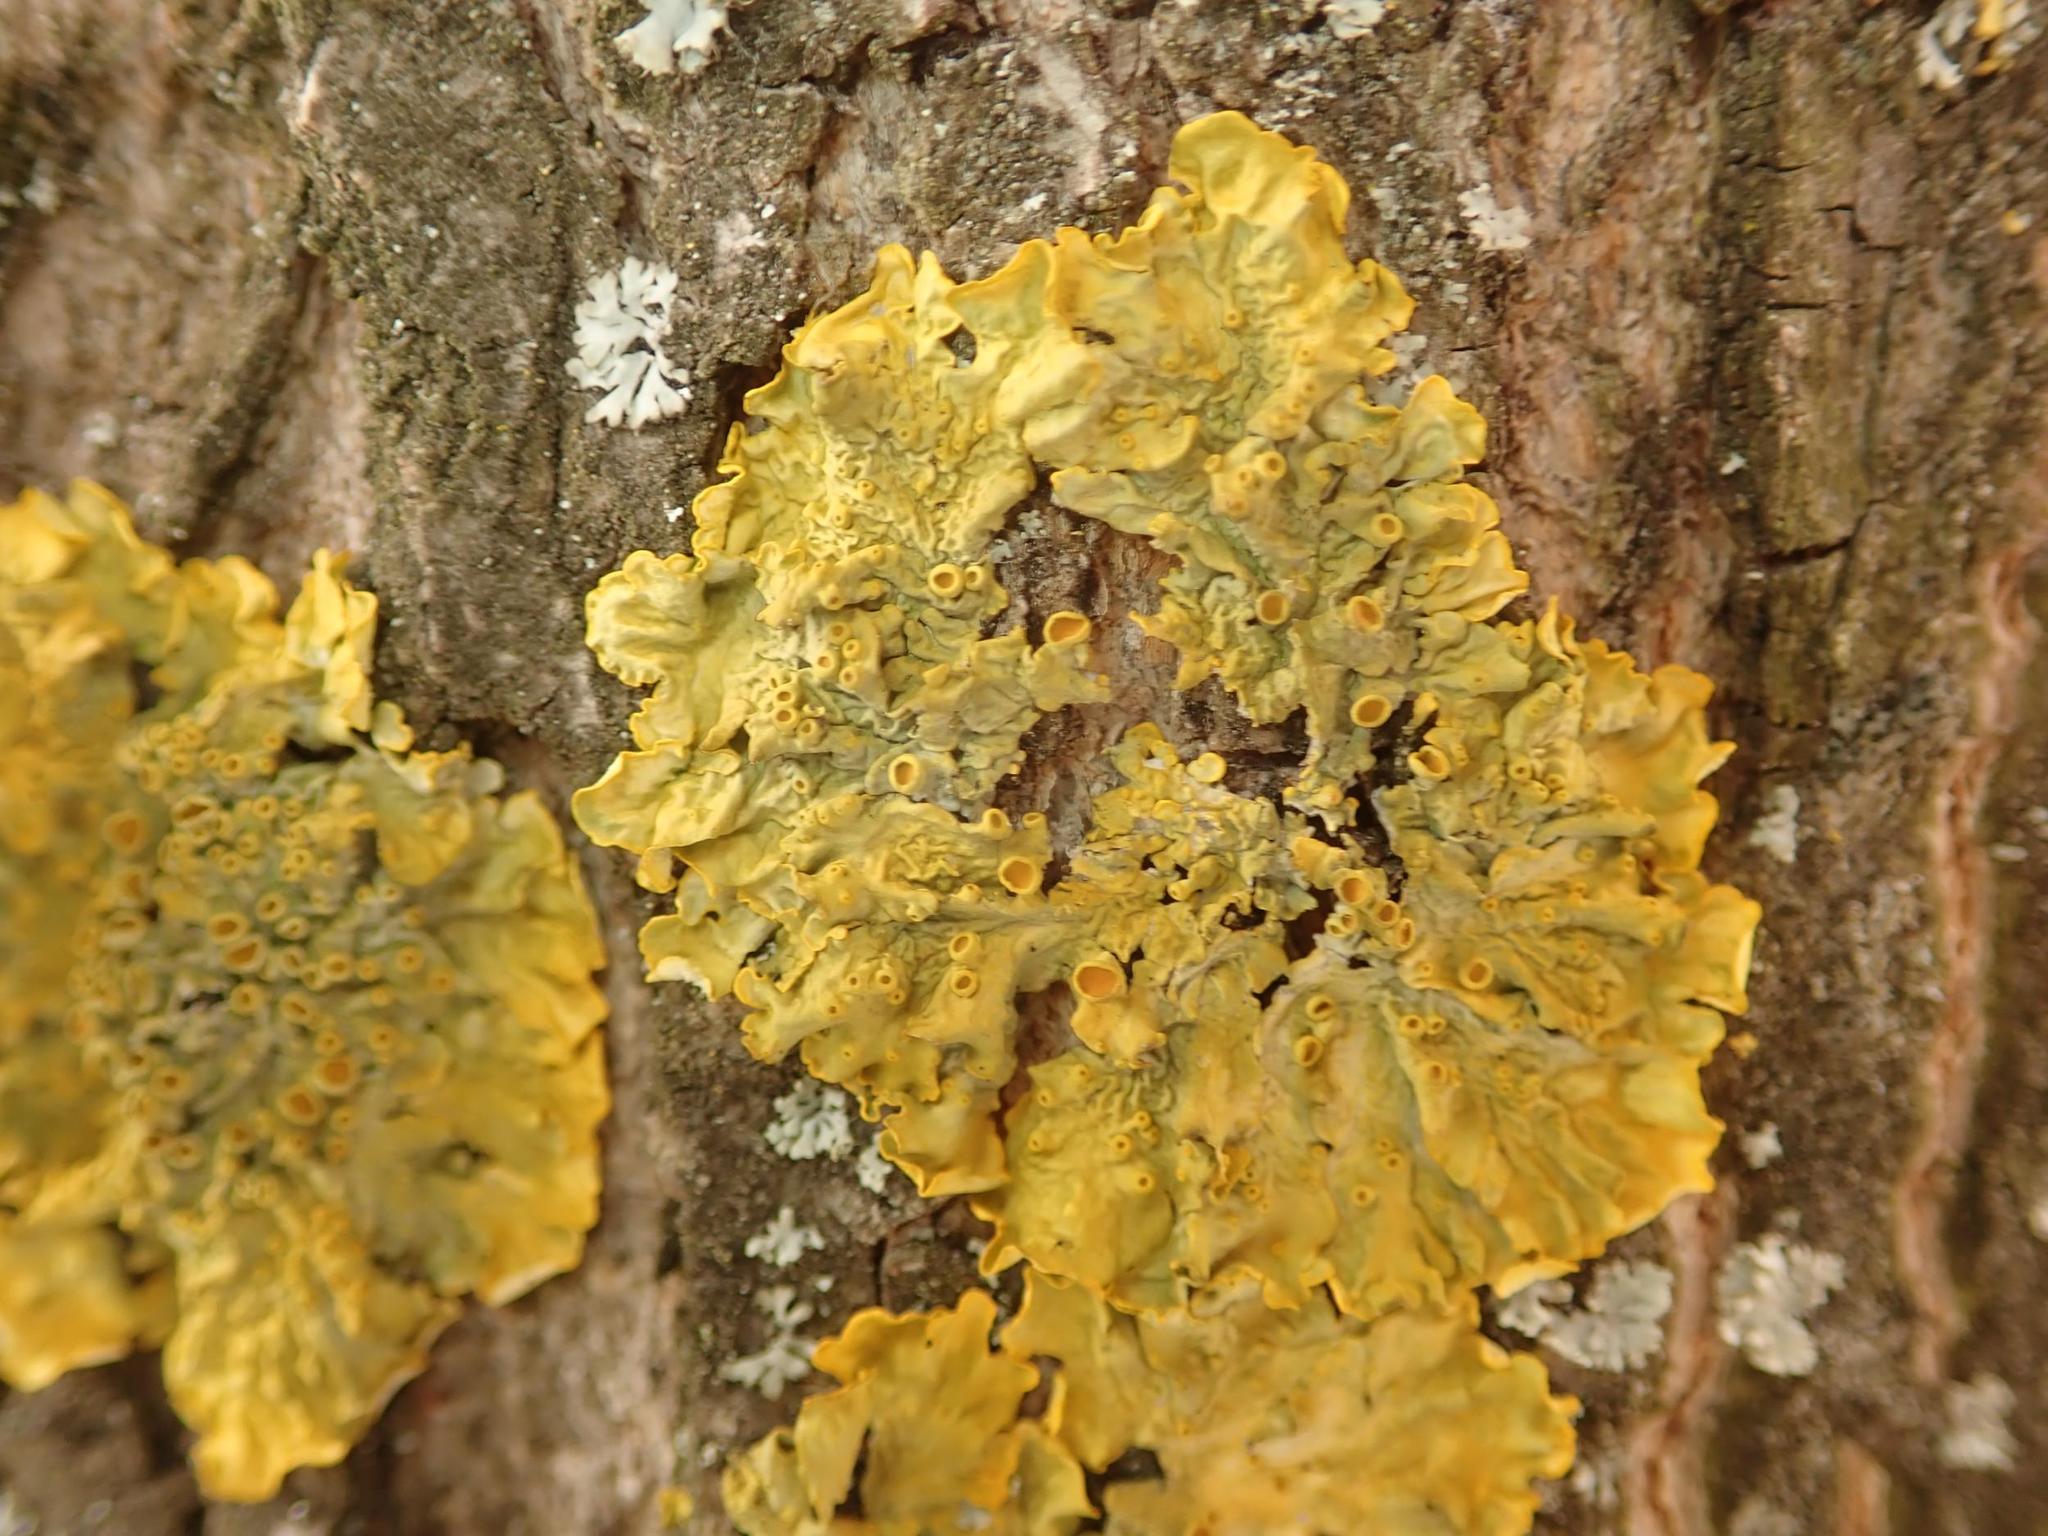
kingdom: Fungi
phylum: Ascomycota
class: Lecanoromycetes
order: Teloschistales
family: Teloschistaceae
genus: Xanthoria
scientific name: Xanthoria parietina
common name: Common orange lichen
